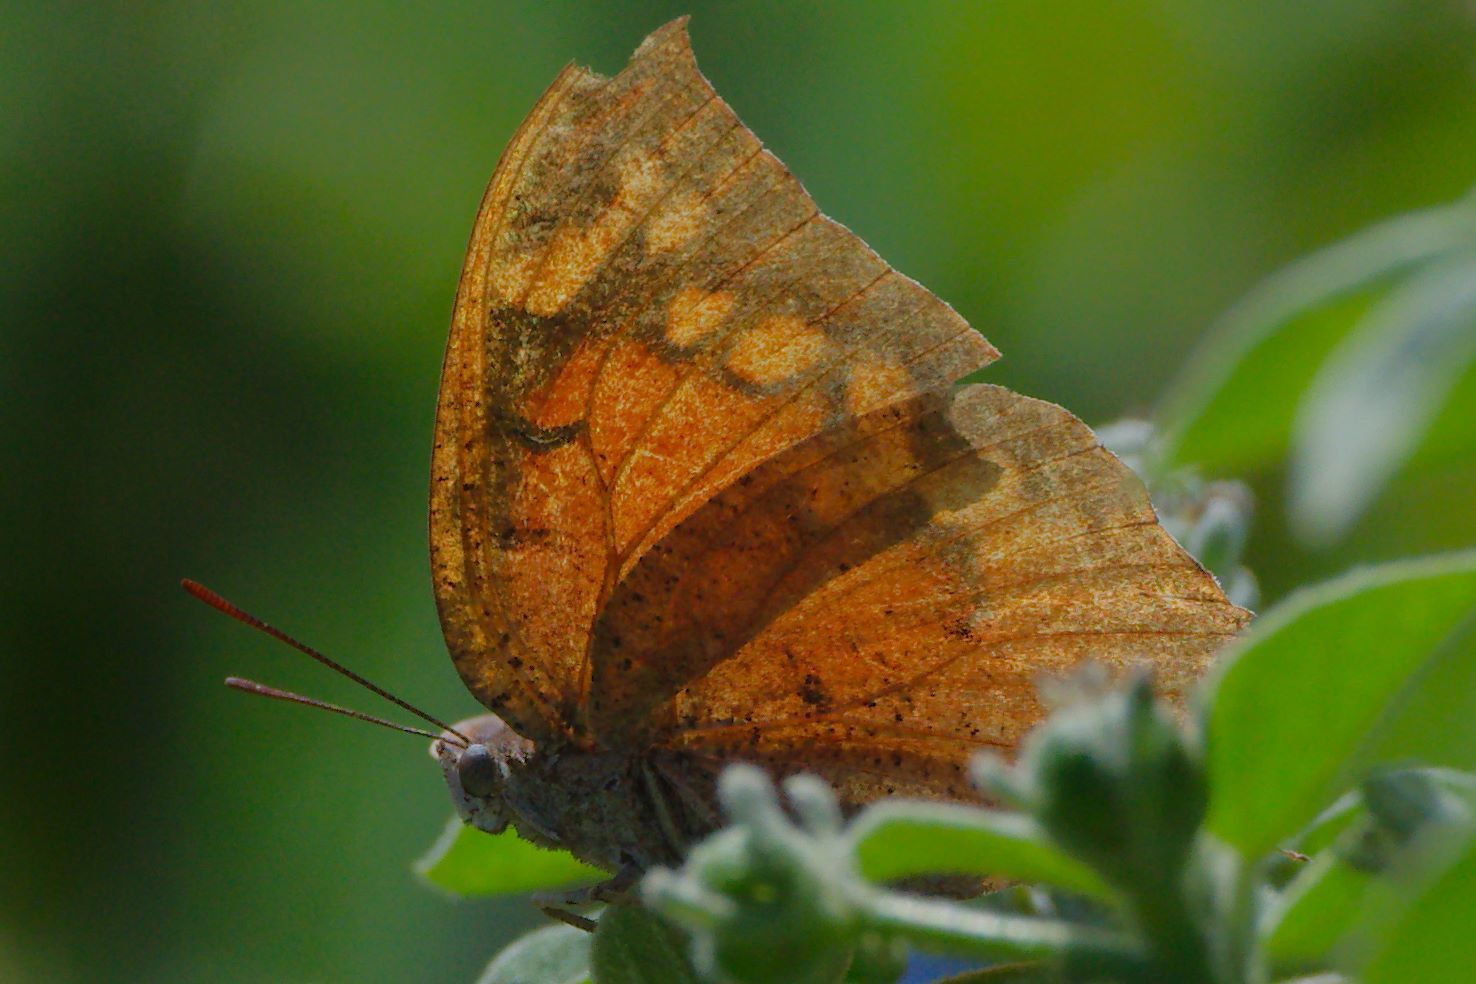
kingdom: Animalia
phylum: Arthropoda
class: Insecta
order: Lepidoptera
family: Nymphalidae
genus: Anaea
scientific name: Anaea aidea
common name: Tropical leafwing
